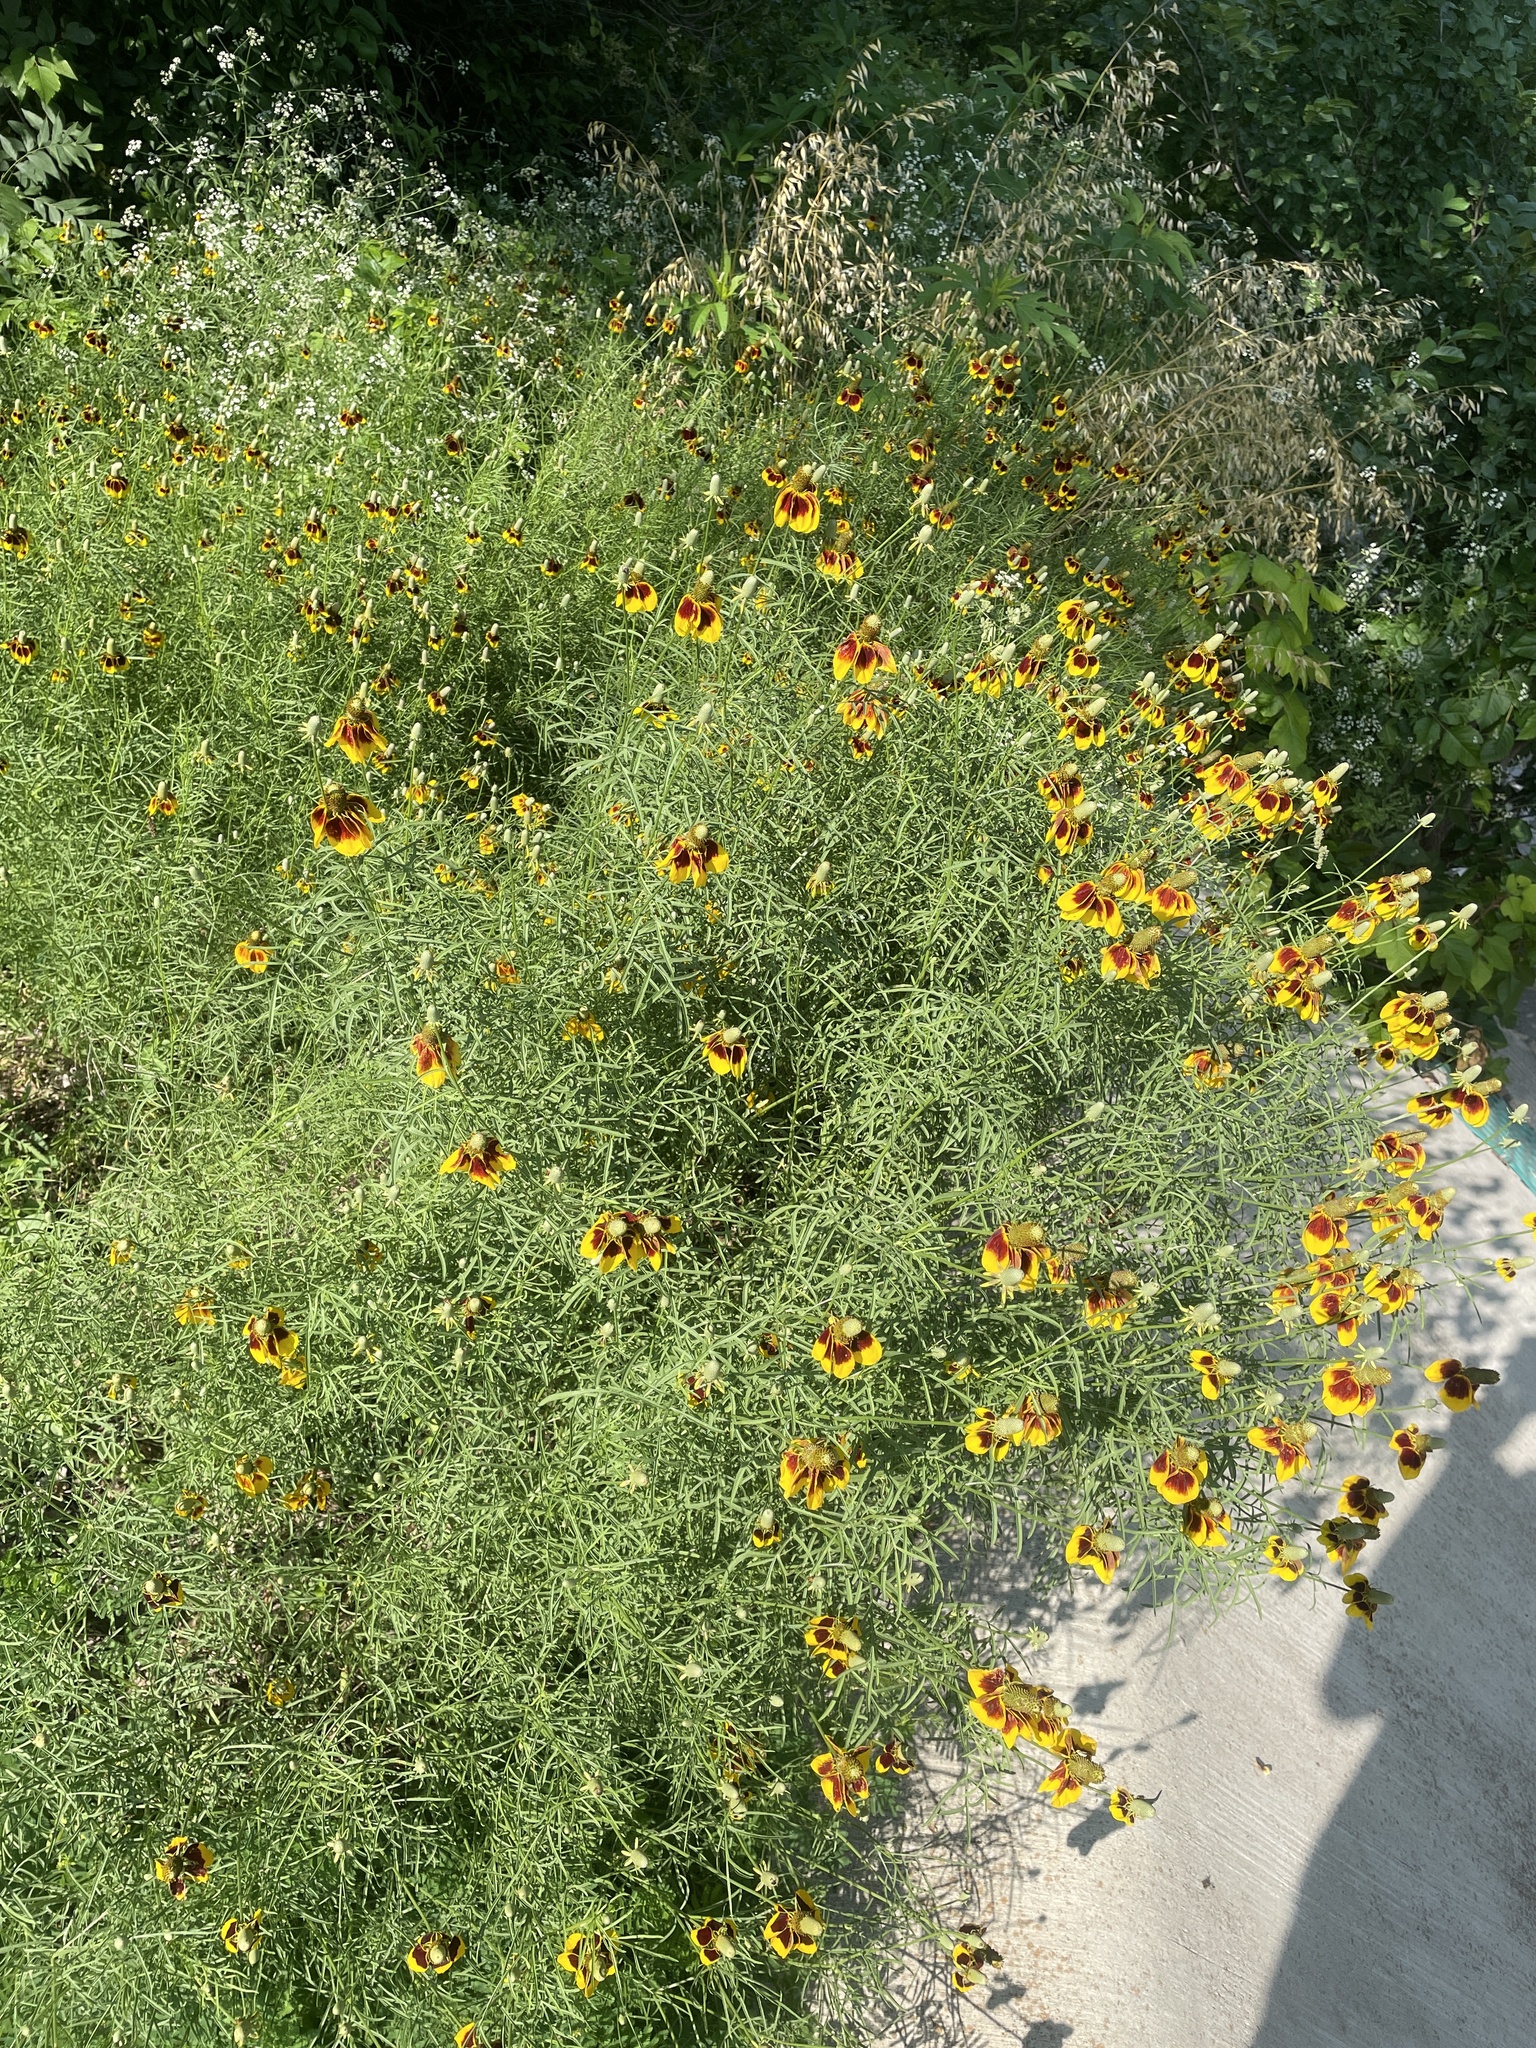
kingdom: Plantae
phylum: Tracheophyta
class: Magnoliopsida
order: Asterales
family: Asteraceae
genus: Ratibida
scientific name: Ratibida columnifera
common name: Prairie coneflower
